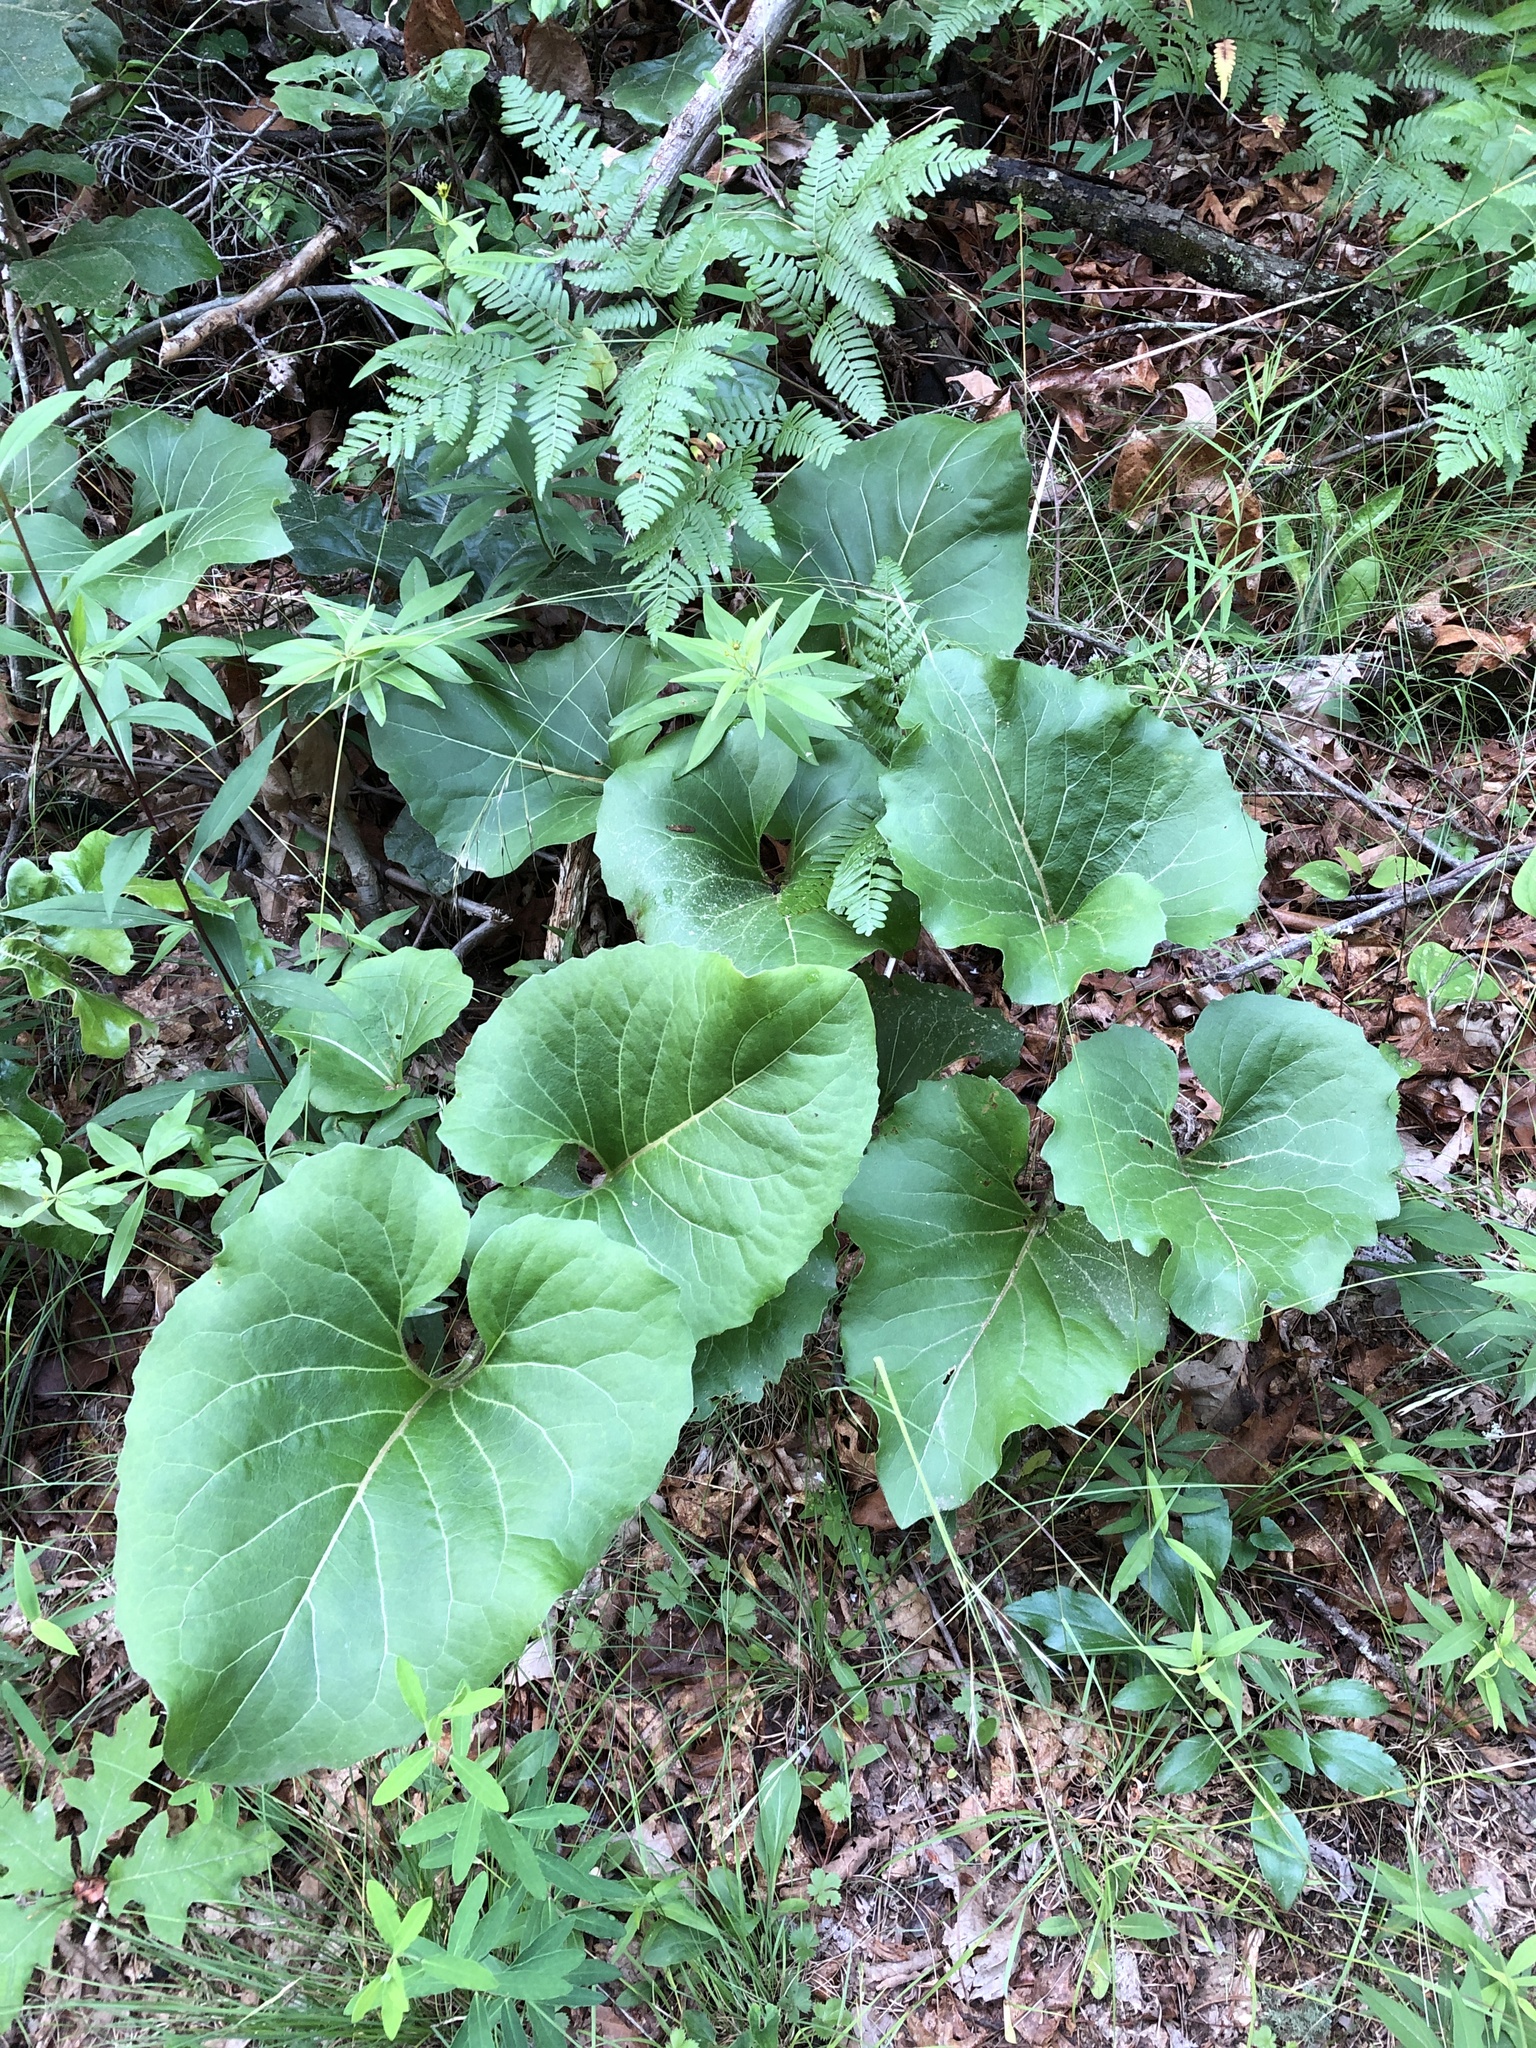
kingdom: Plantae
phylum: Tracheophyta
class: Magnoliopsida
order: Asterales
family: Asteraceae
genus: Silphium
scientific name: Silphium reniforme
